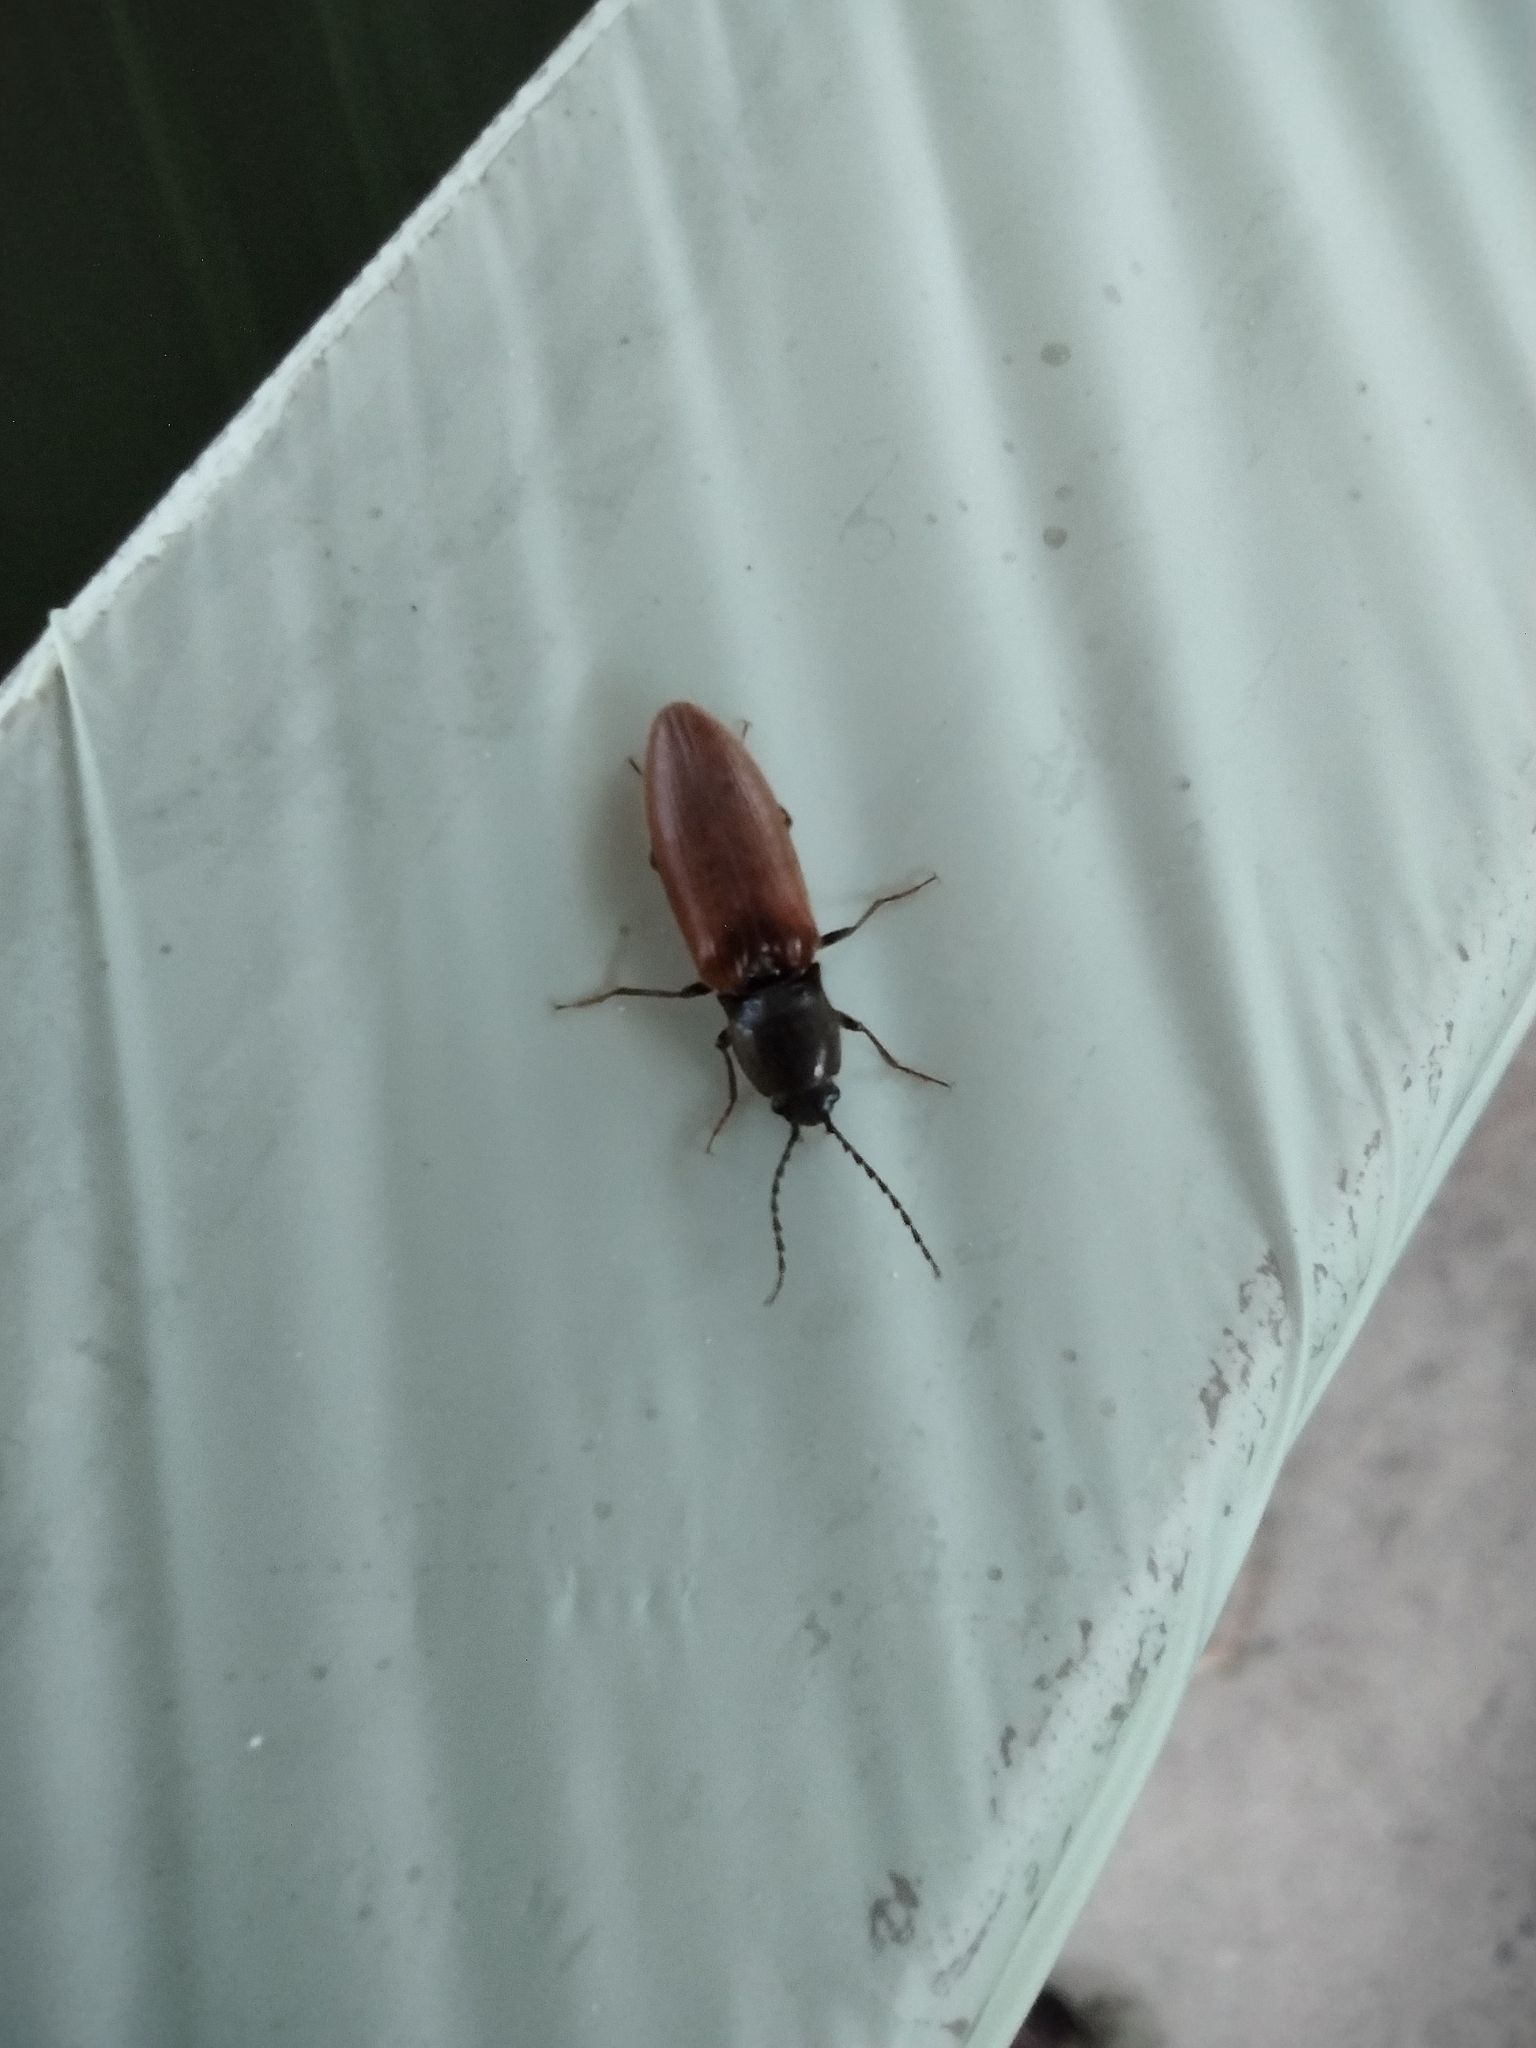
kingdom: Animalia
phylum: Arthropoda
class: Insecta
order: Coleoptera
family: Elateridae
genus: Hemicrepidius
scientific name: Hemicrepidius niger
